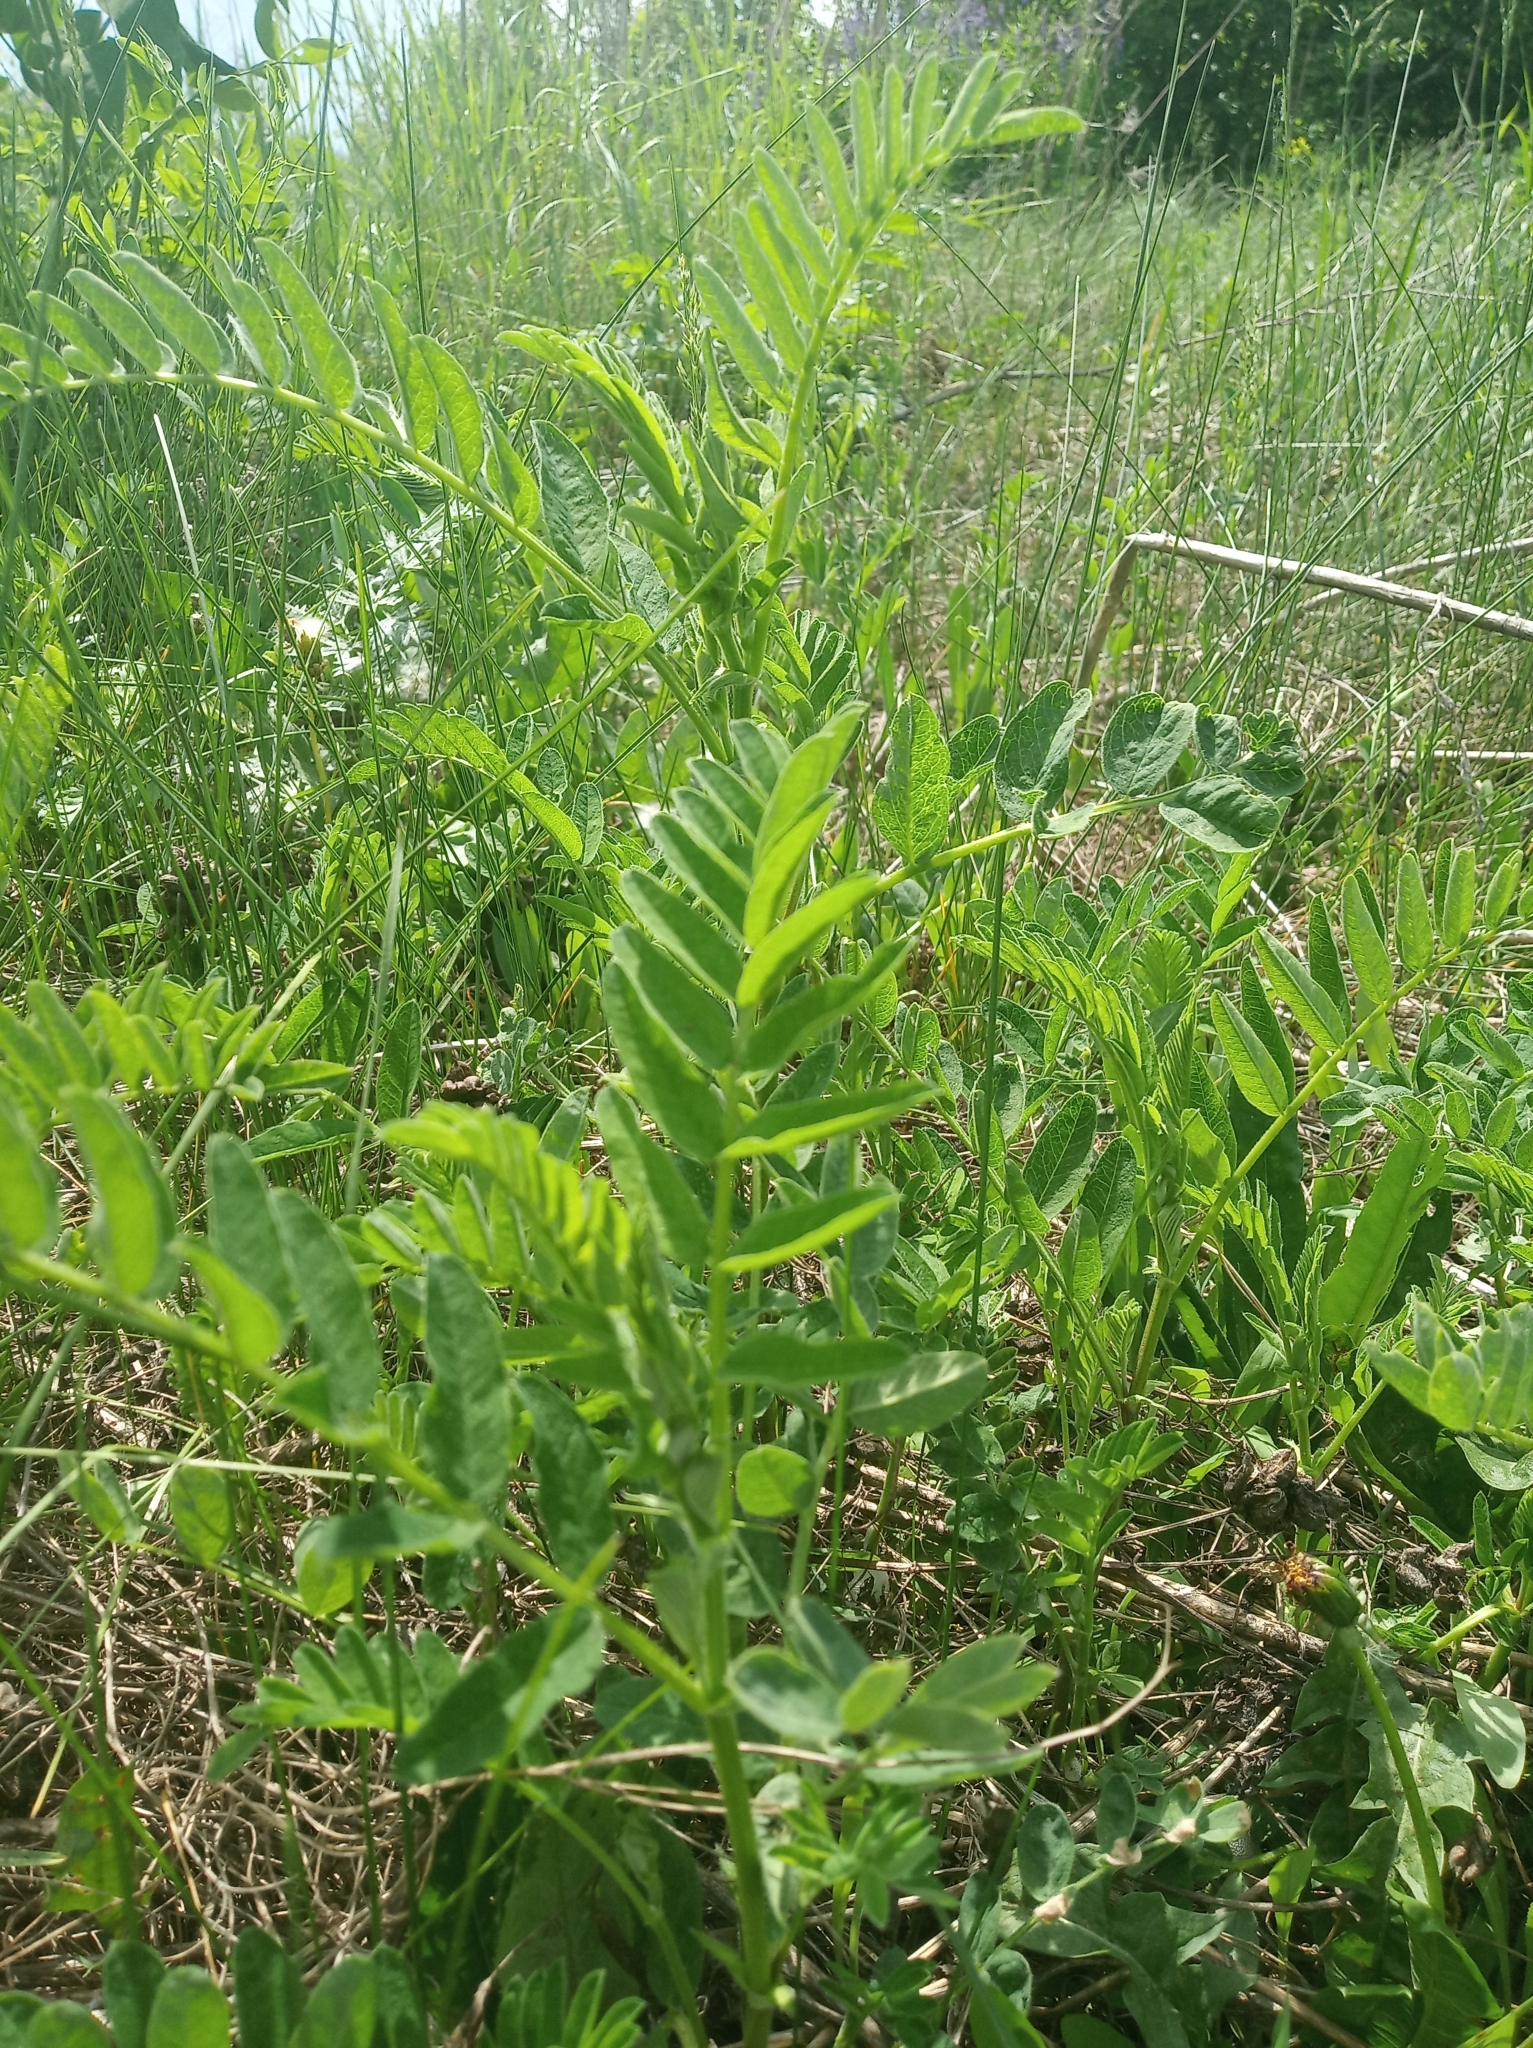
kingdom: Plantae
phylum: Tracheophyta
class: Magnoliopsida
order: Fabales
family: Fabaceae
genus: Astragalus
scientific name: Astragalus cicer
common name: Chick-pea milk-vetch
